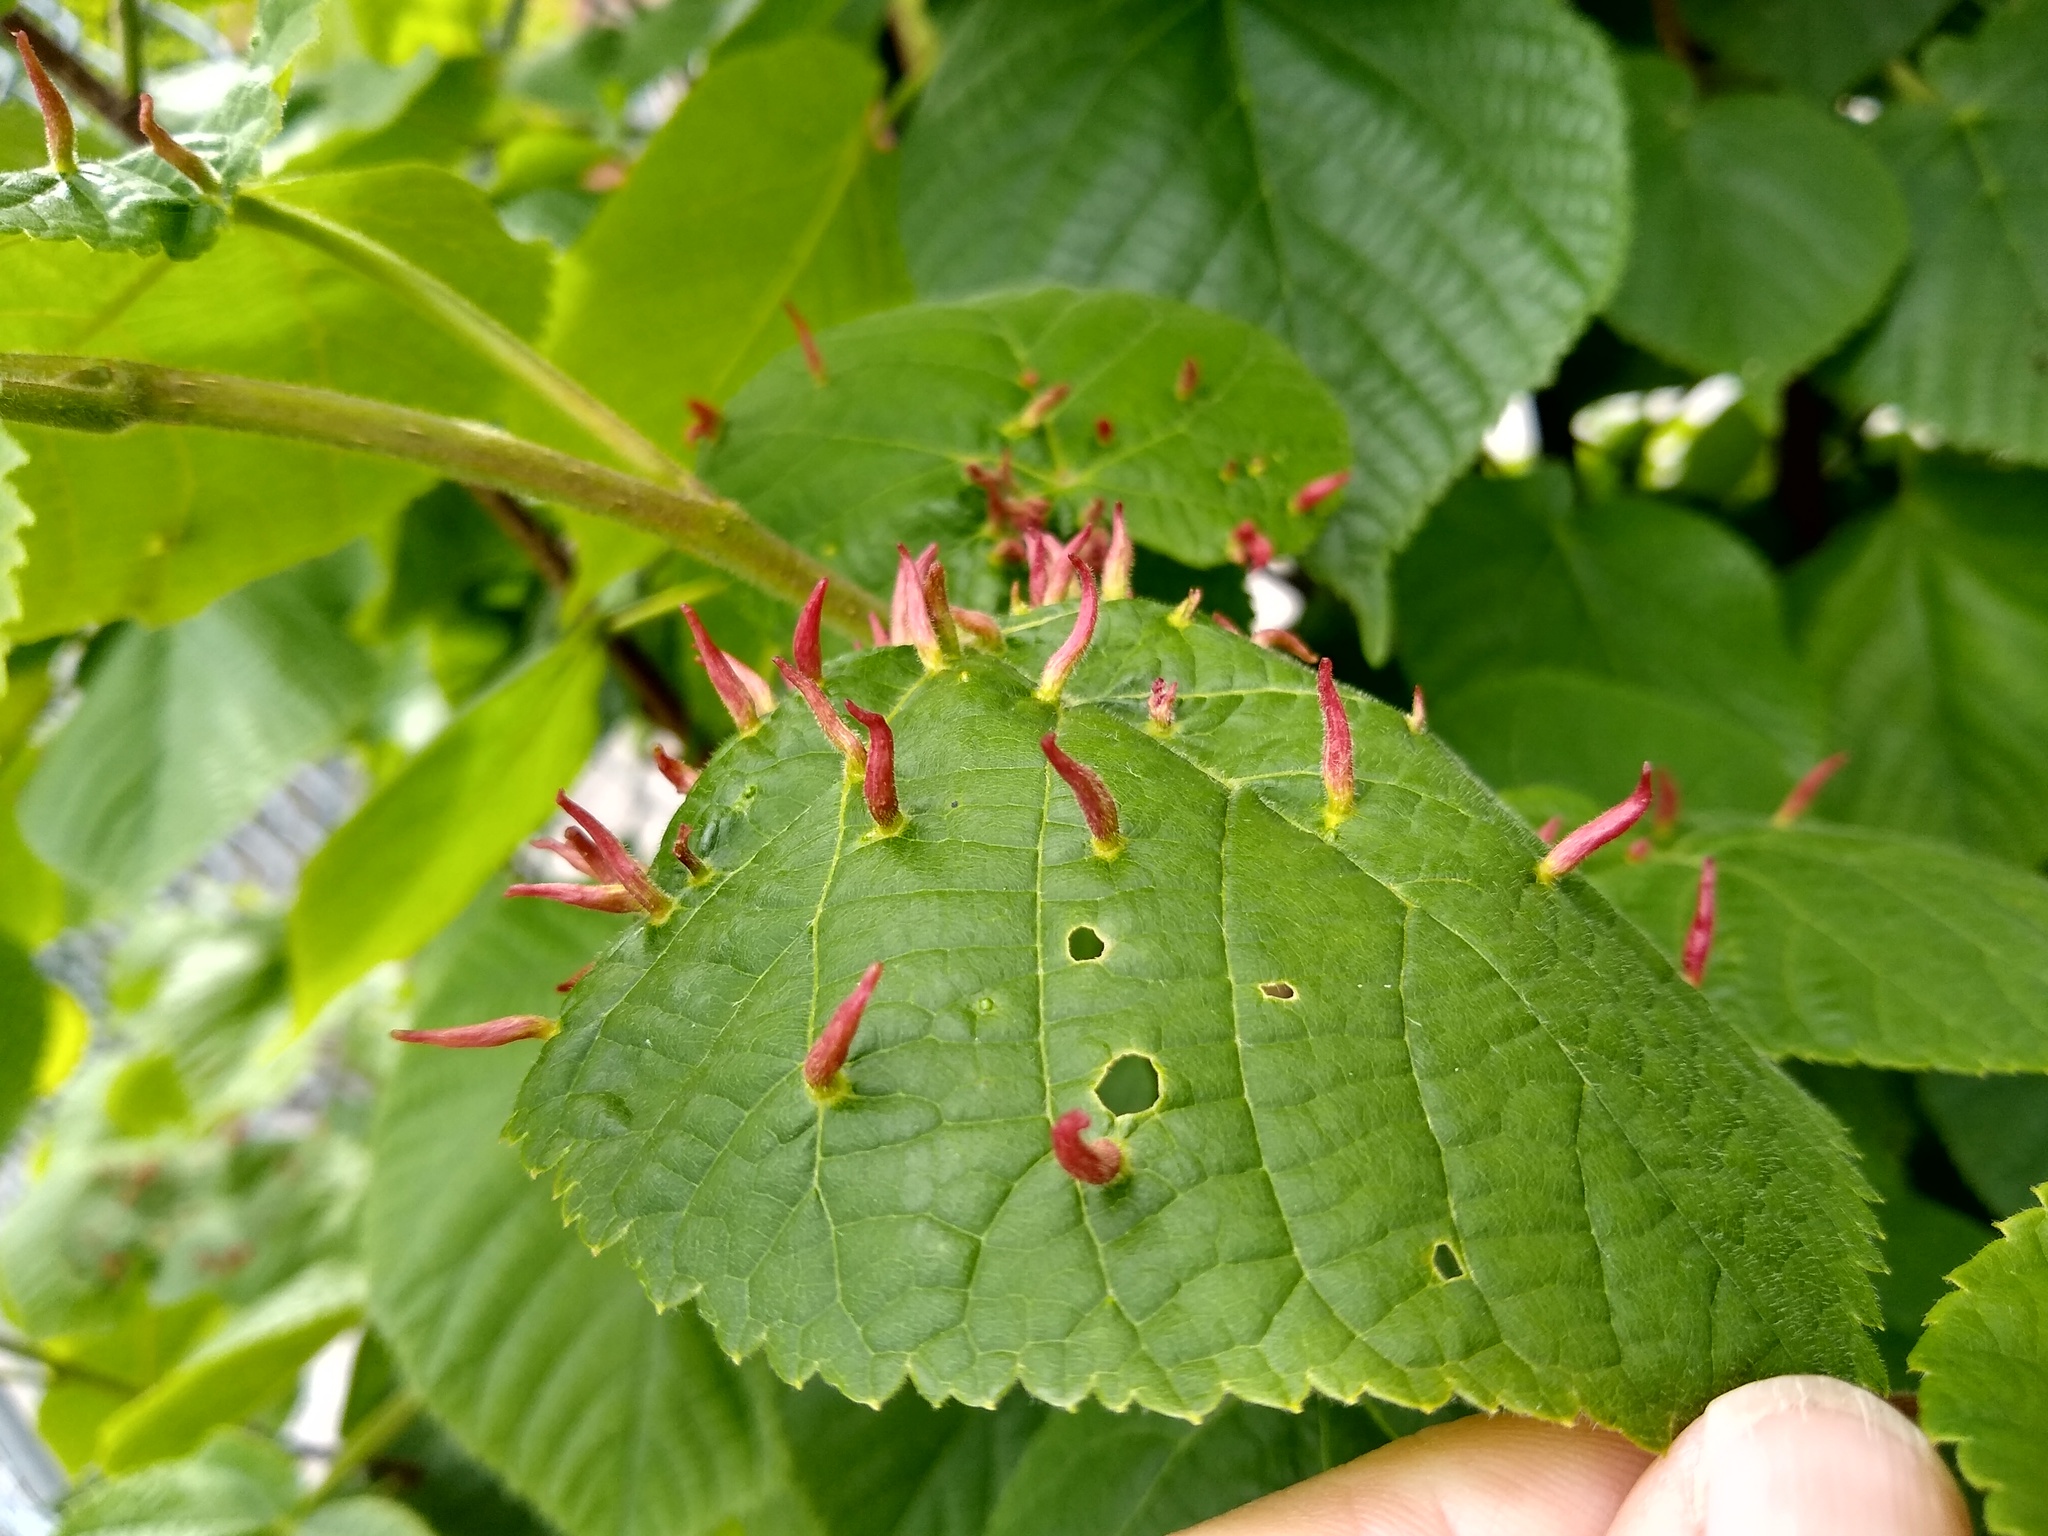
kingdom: Animalia
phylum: Arthropoda
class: Arachnida
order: Trombidiformes
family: Eriophyidae
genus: Eriophyes
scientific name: Eriophyes tiliae
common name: Red nail gall mite
